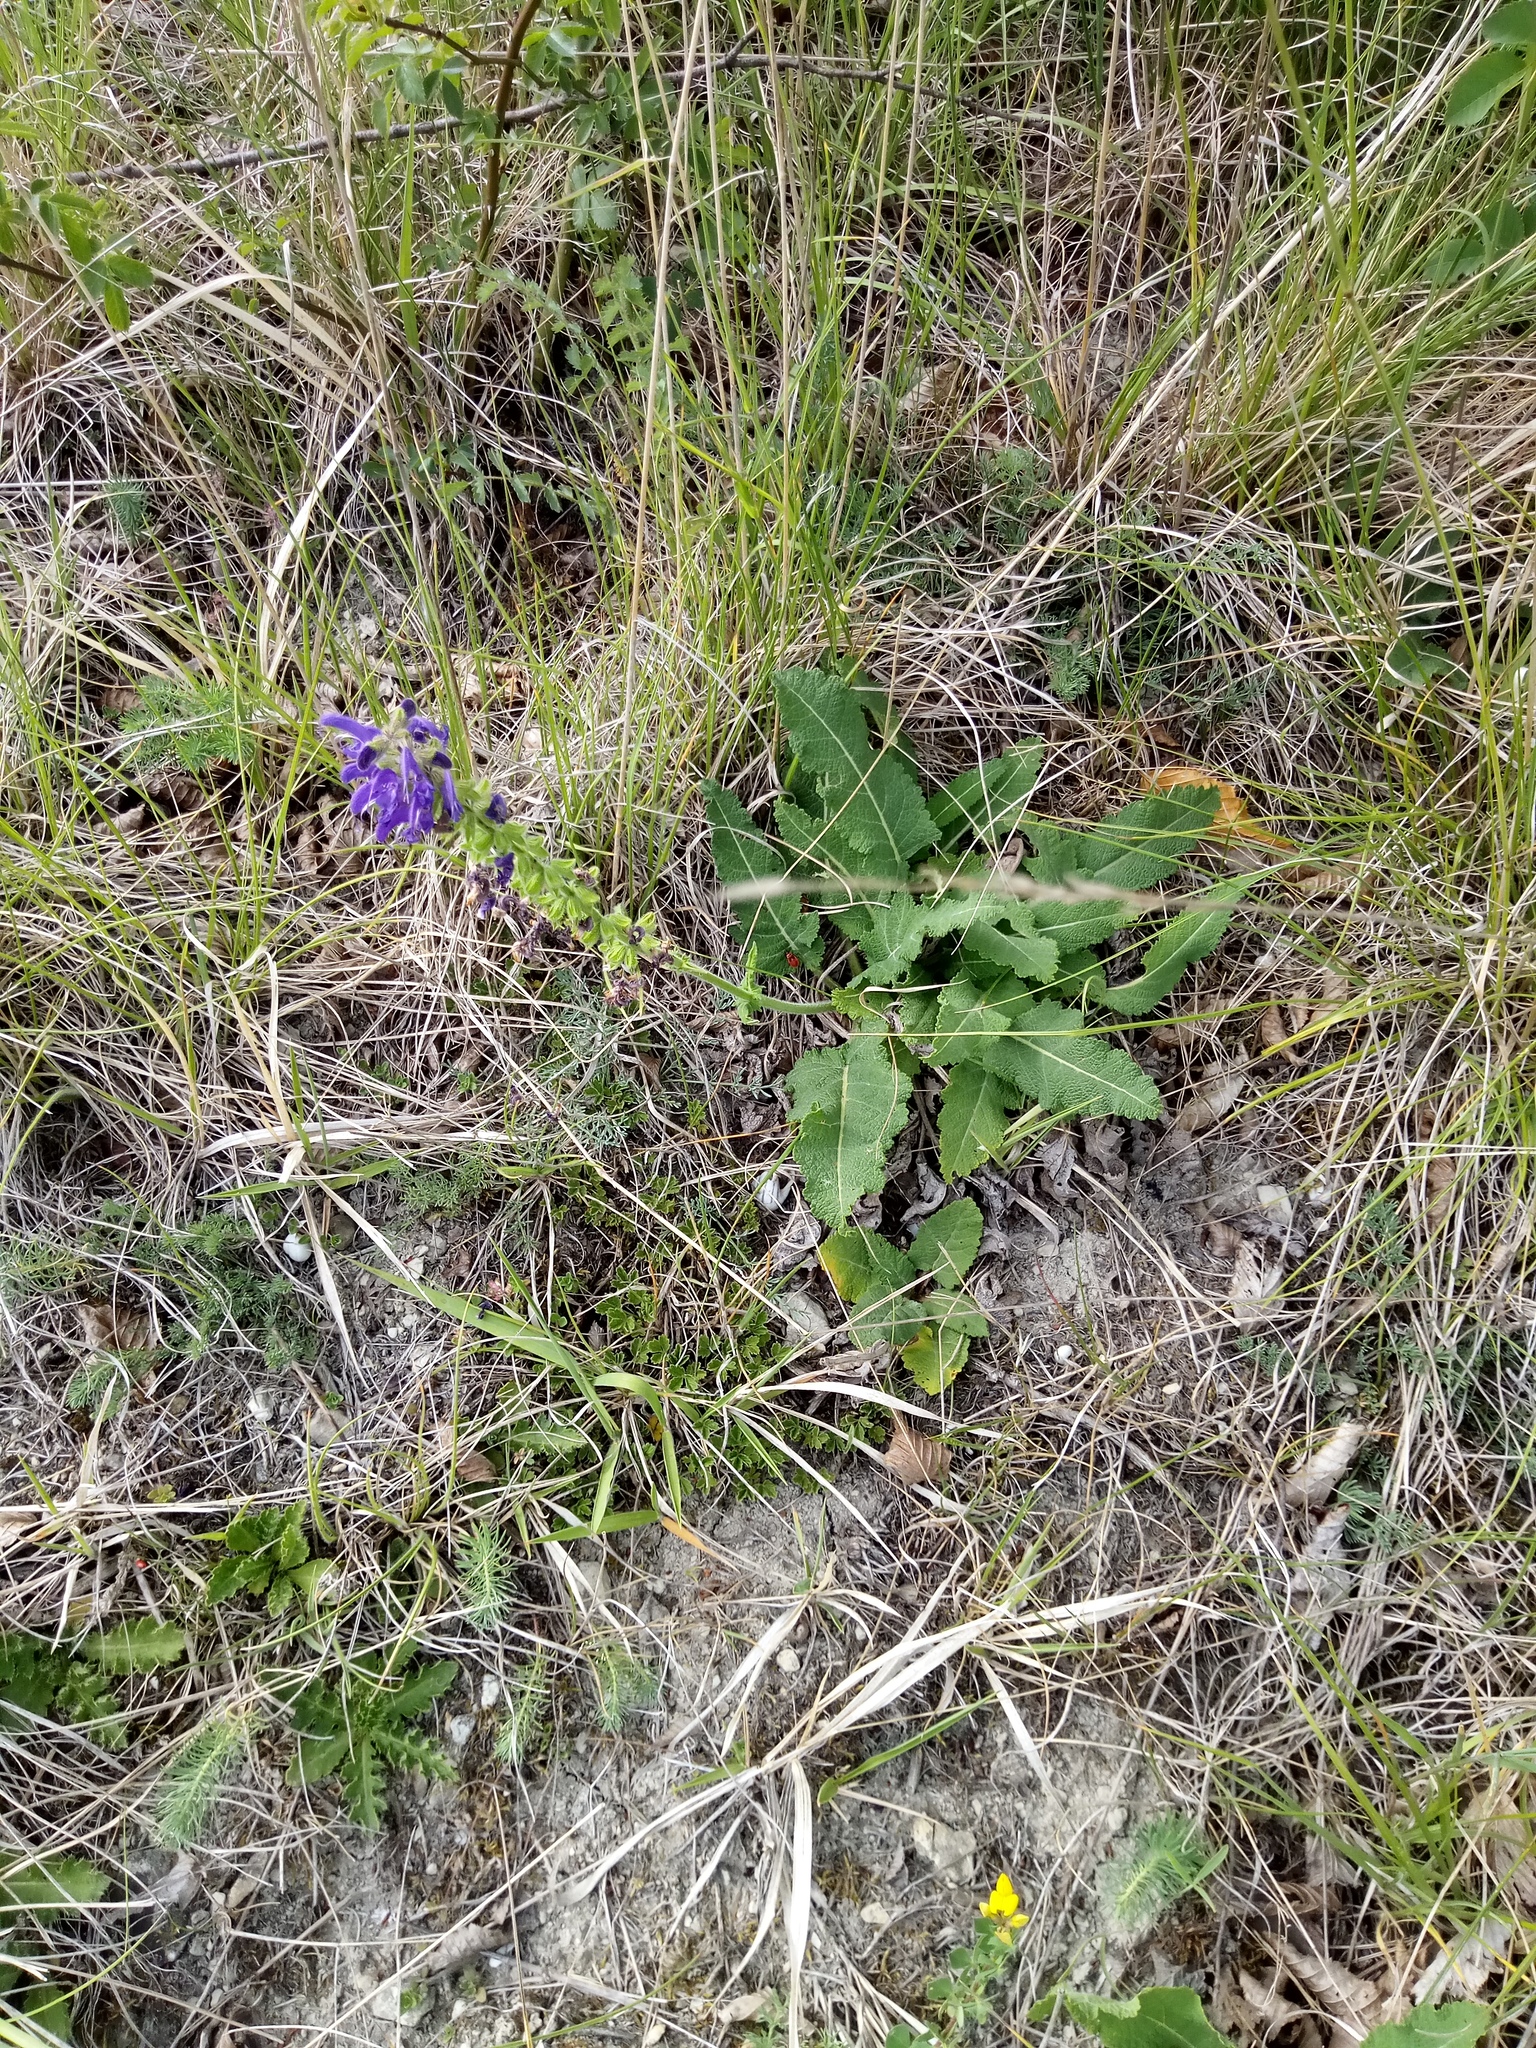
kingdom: Plantae
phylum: Tracheophyta
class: Magnoliopsida
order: Lamiales
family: Lamiaceae
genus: Salvia
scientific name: Salvia pratensis
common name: Meadow sage
